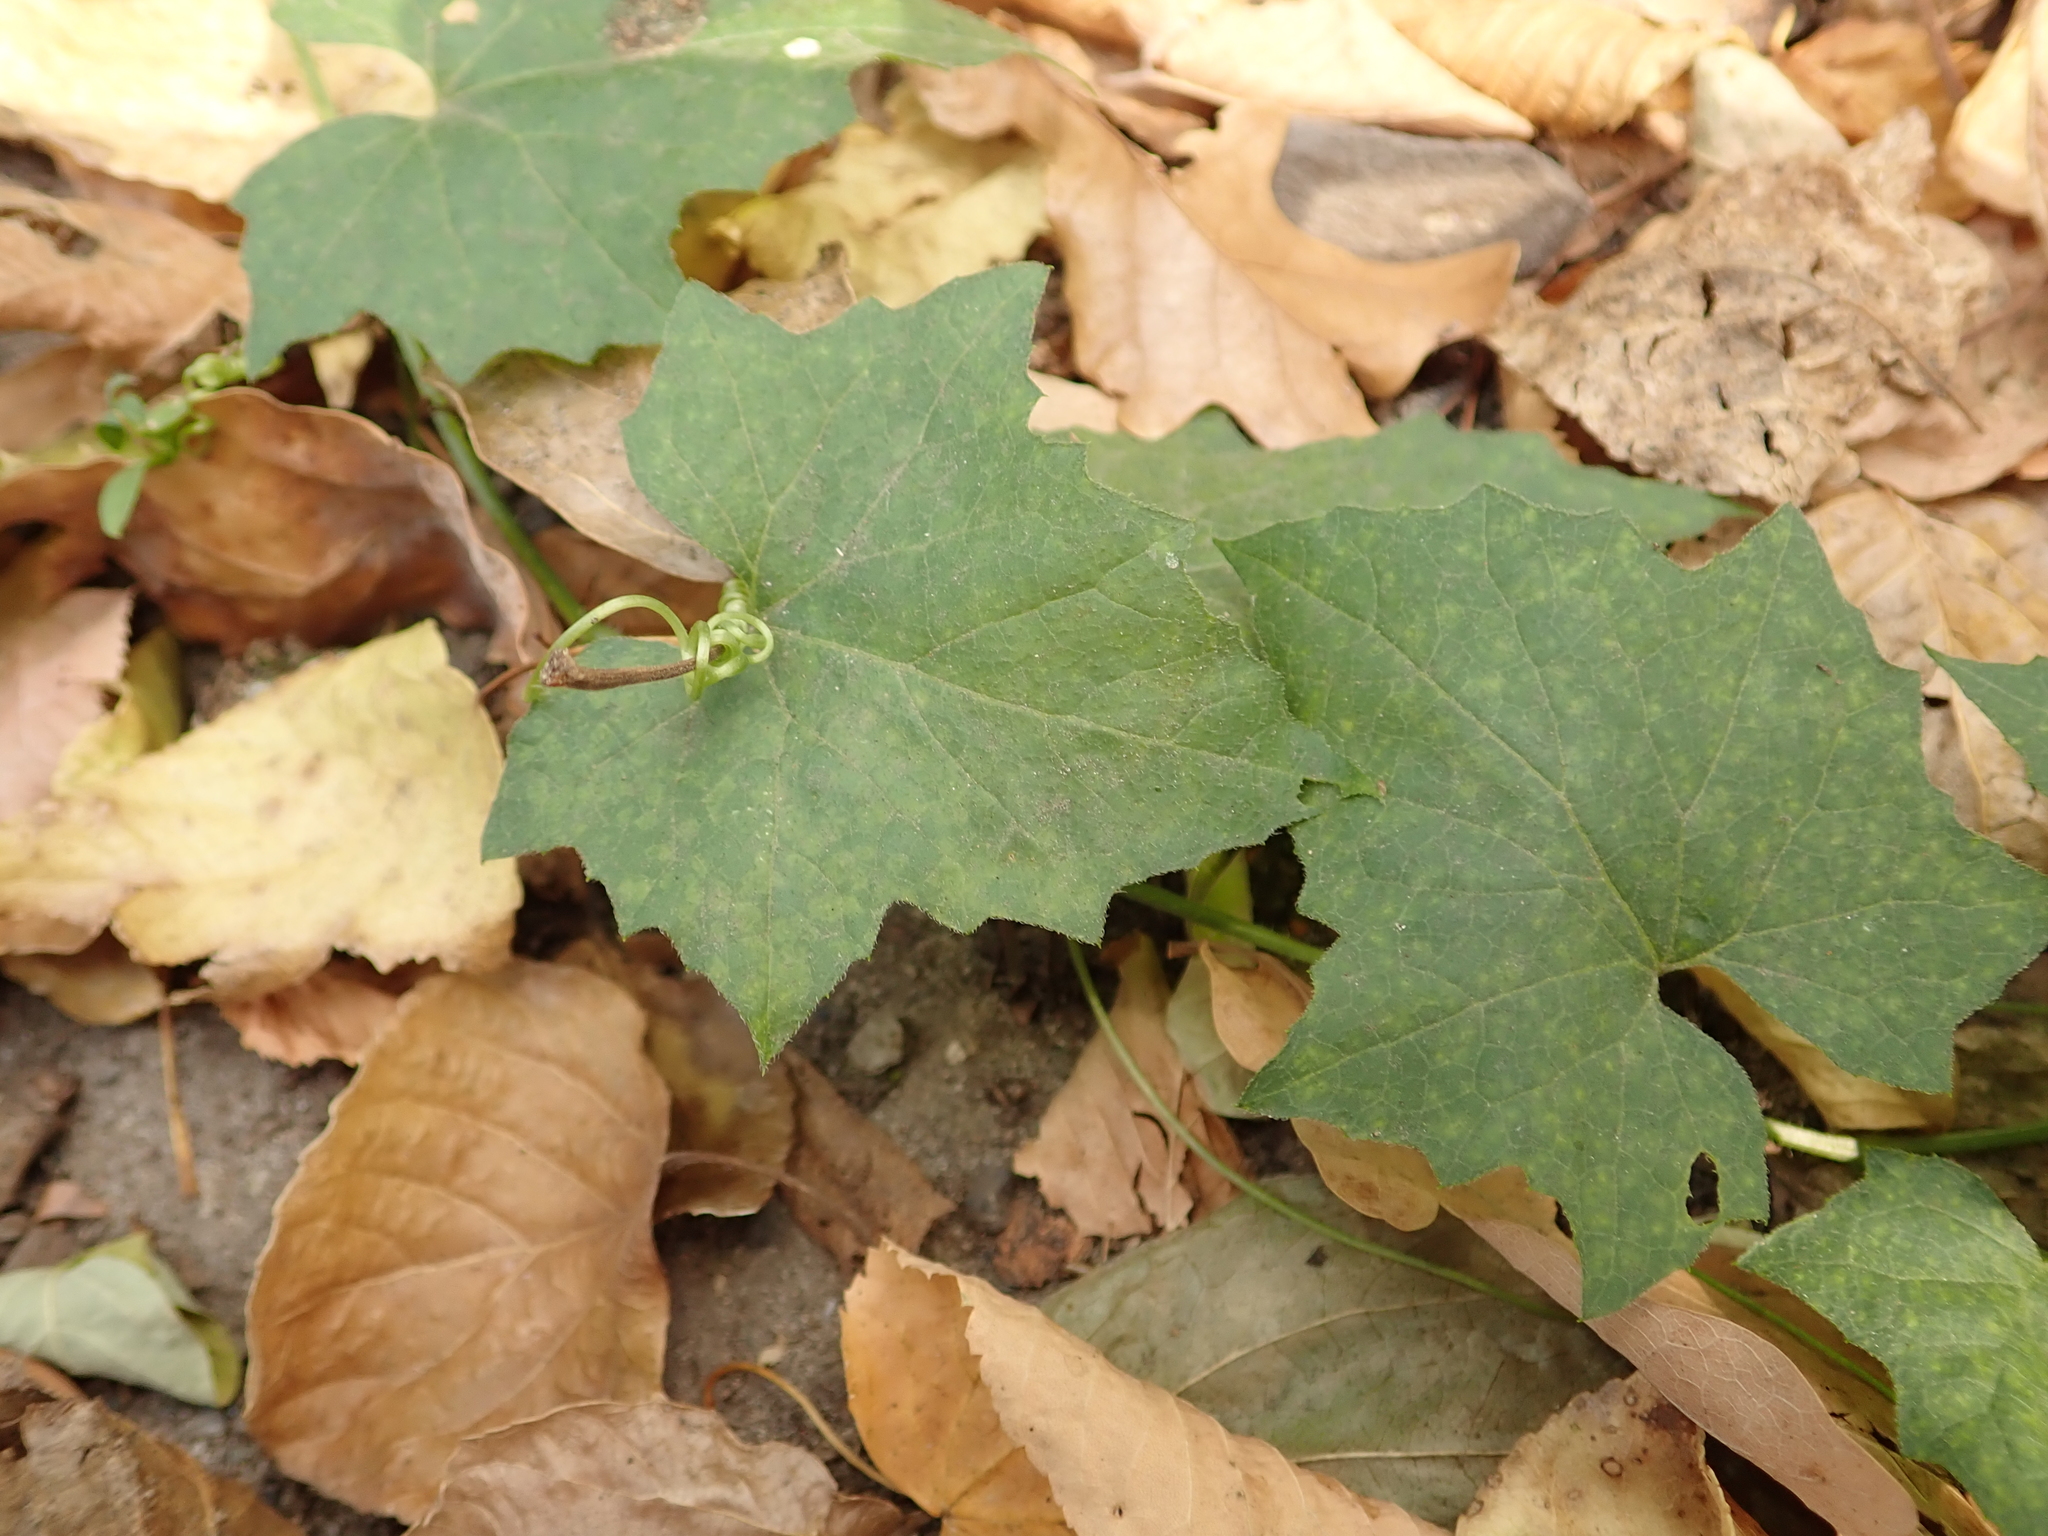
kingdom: Plantae
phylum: Tracheophyta
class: Magnoliopsida
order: Cucurbitales
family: Cucurbitaceae
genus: Bryonia
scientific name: Bryonia cretica
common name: Cretan bryony
